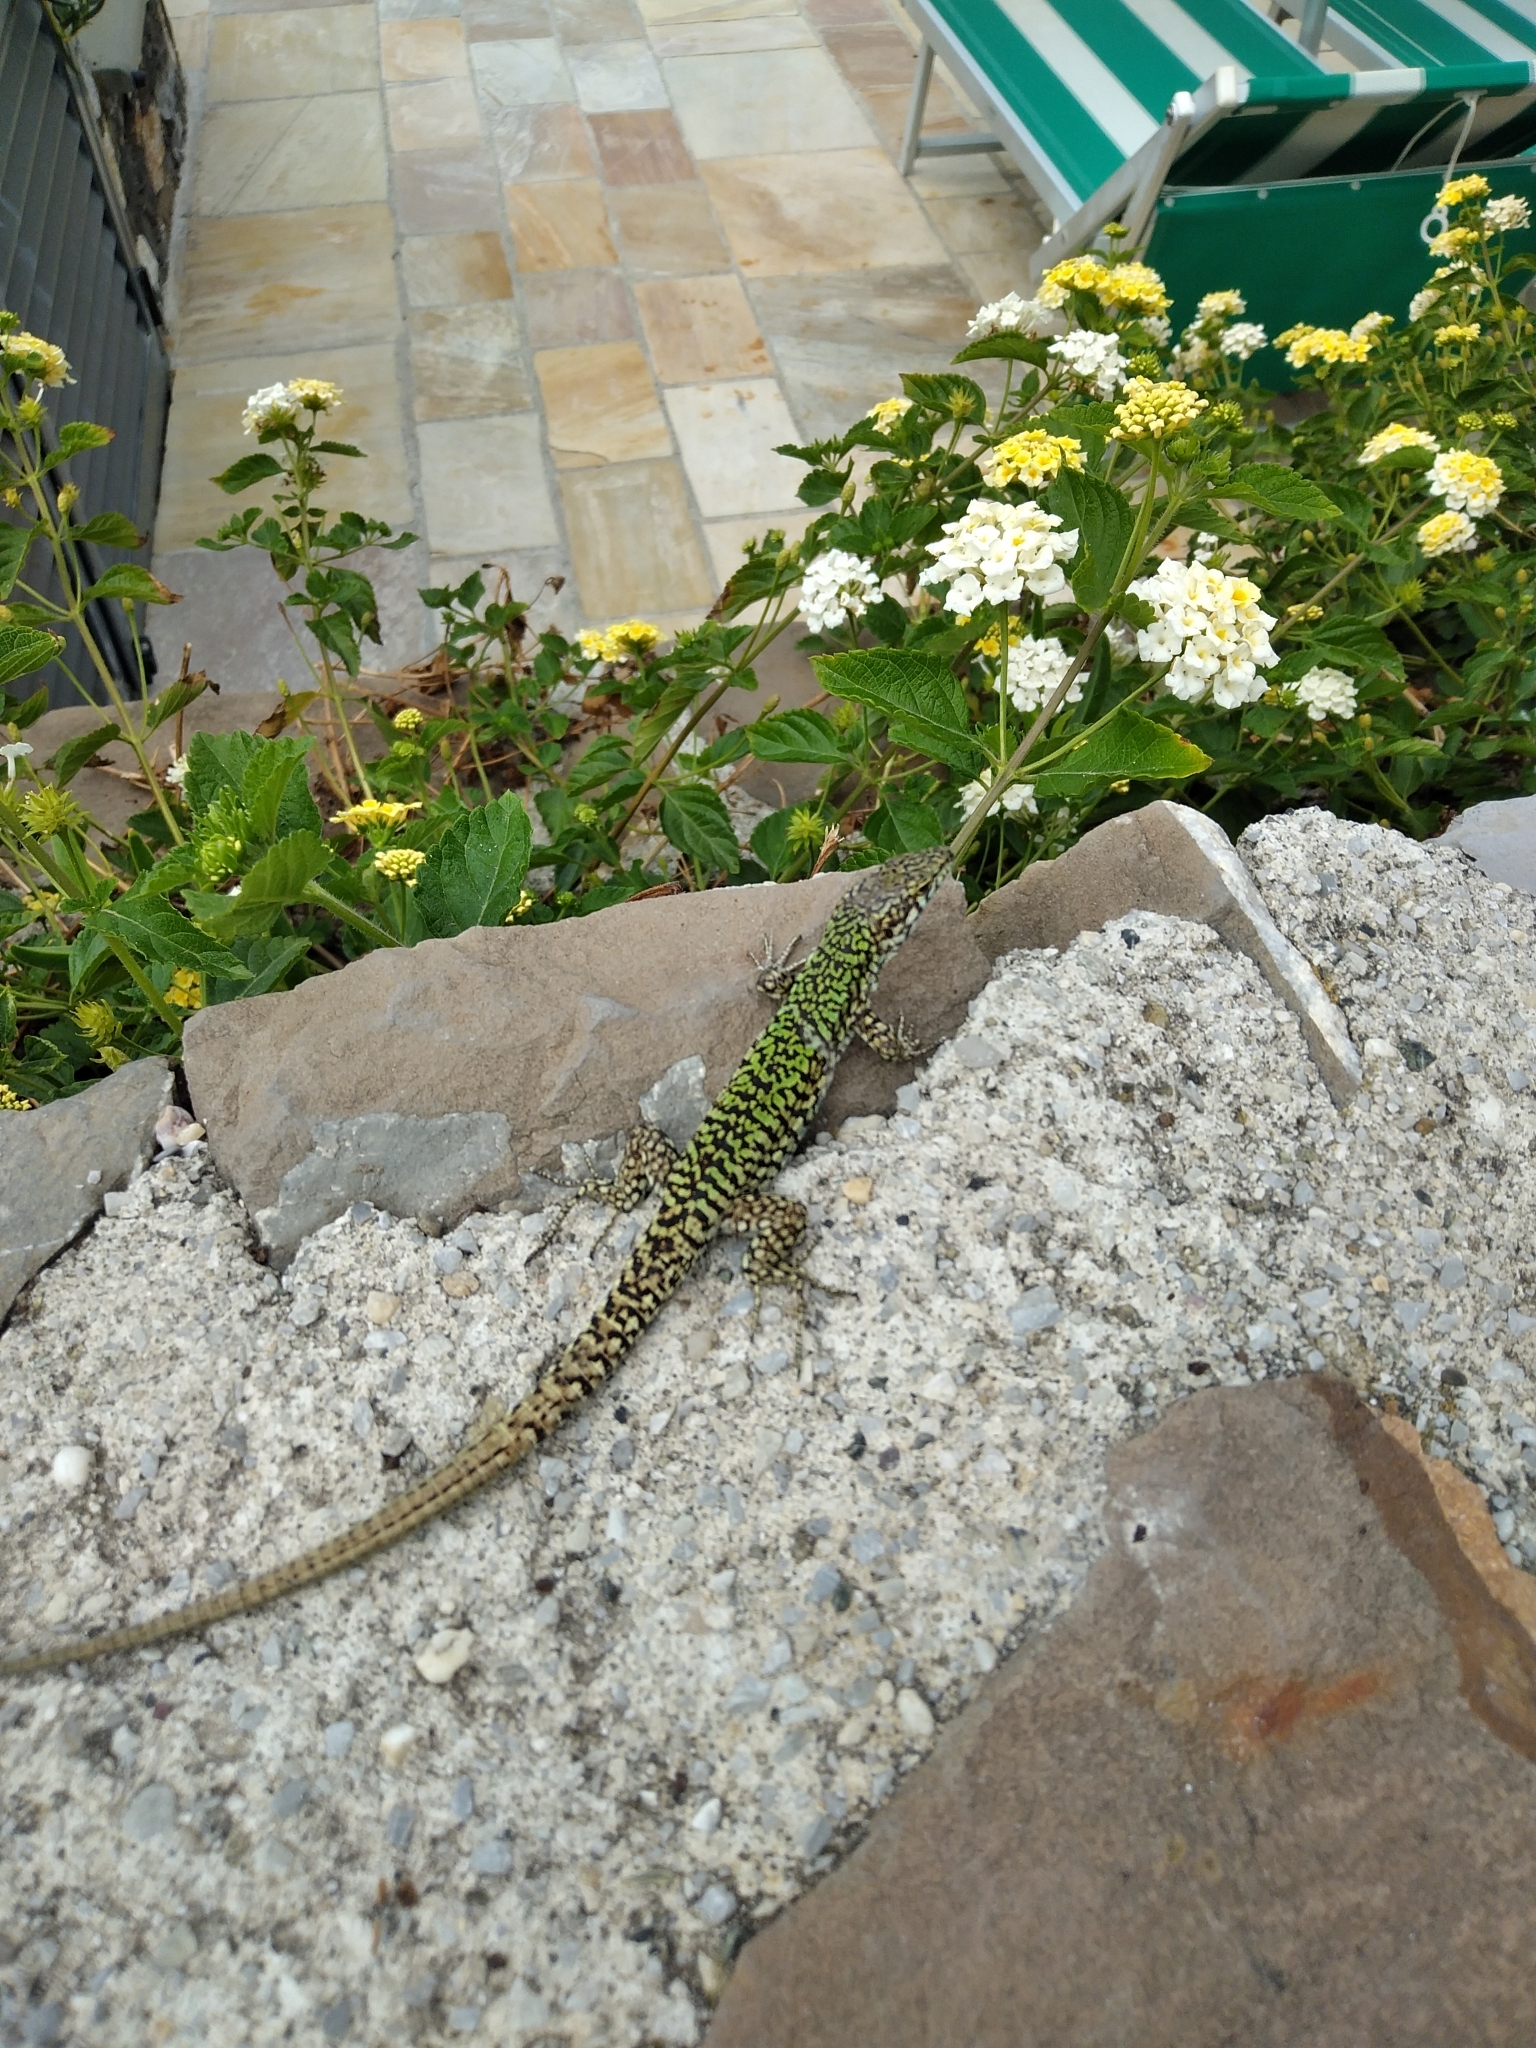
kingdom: Animalia
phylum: Chordata
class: Squamata
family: Lacertidae
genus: Podarcis
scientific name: Podarcis muralis
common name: Common wall lizard
